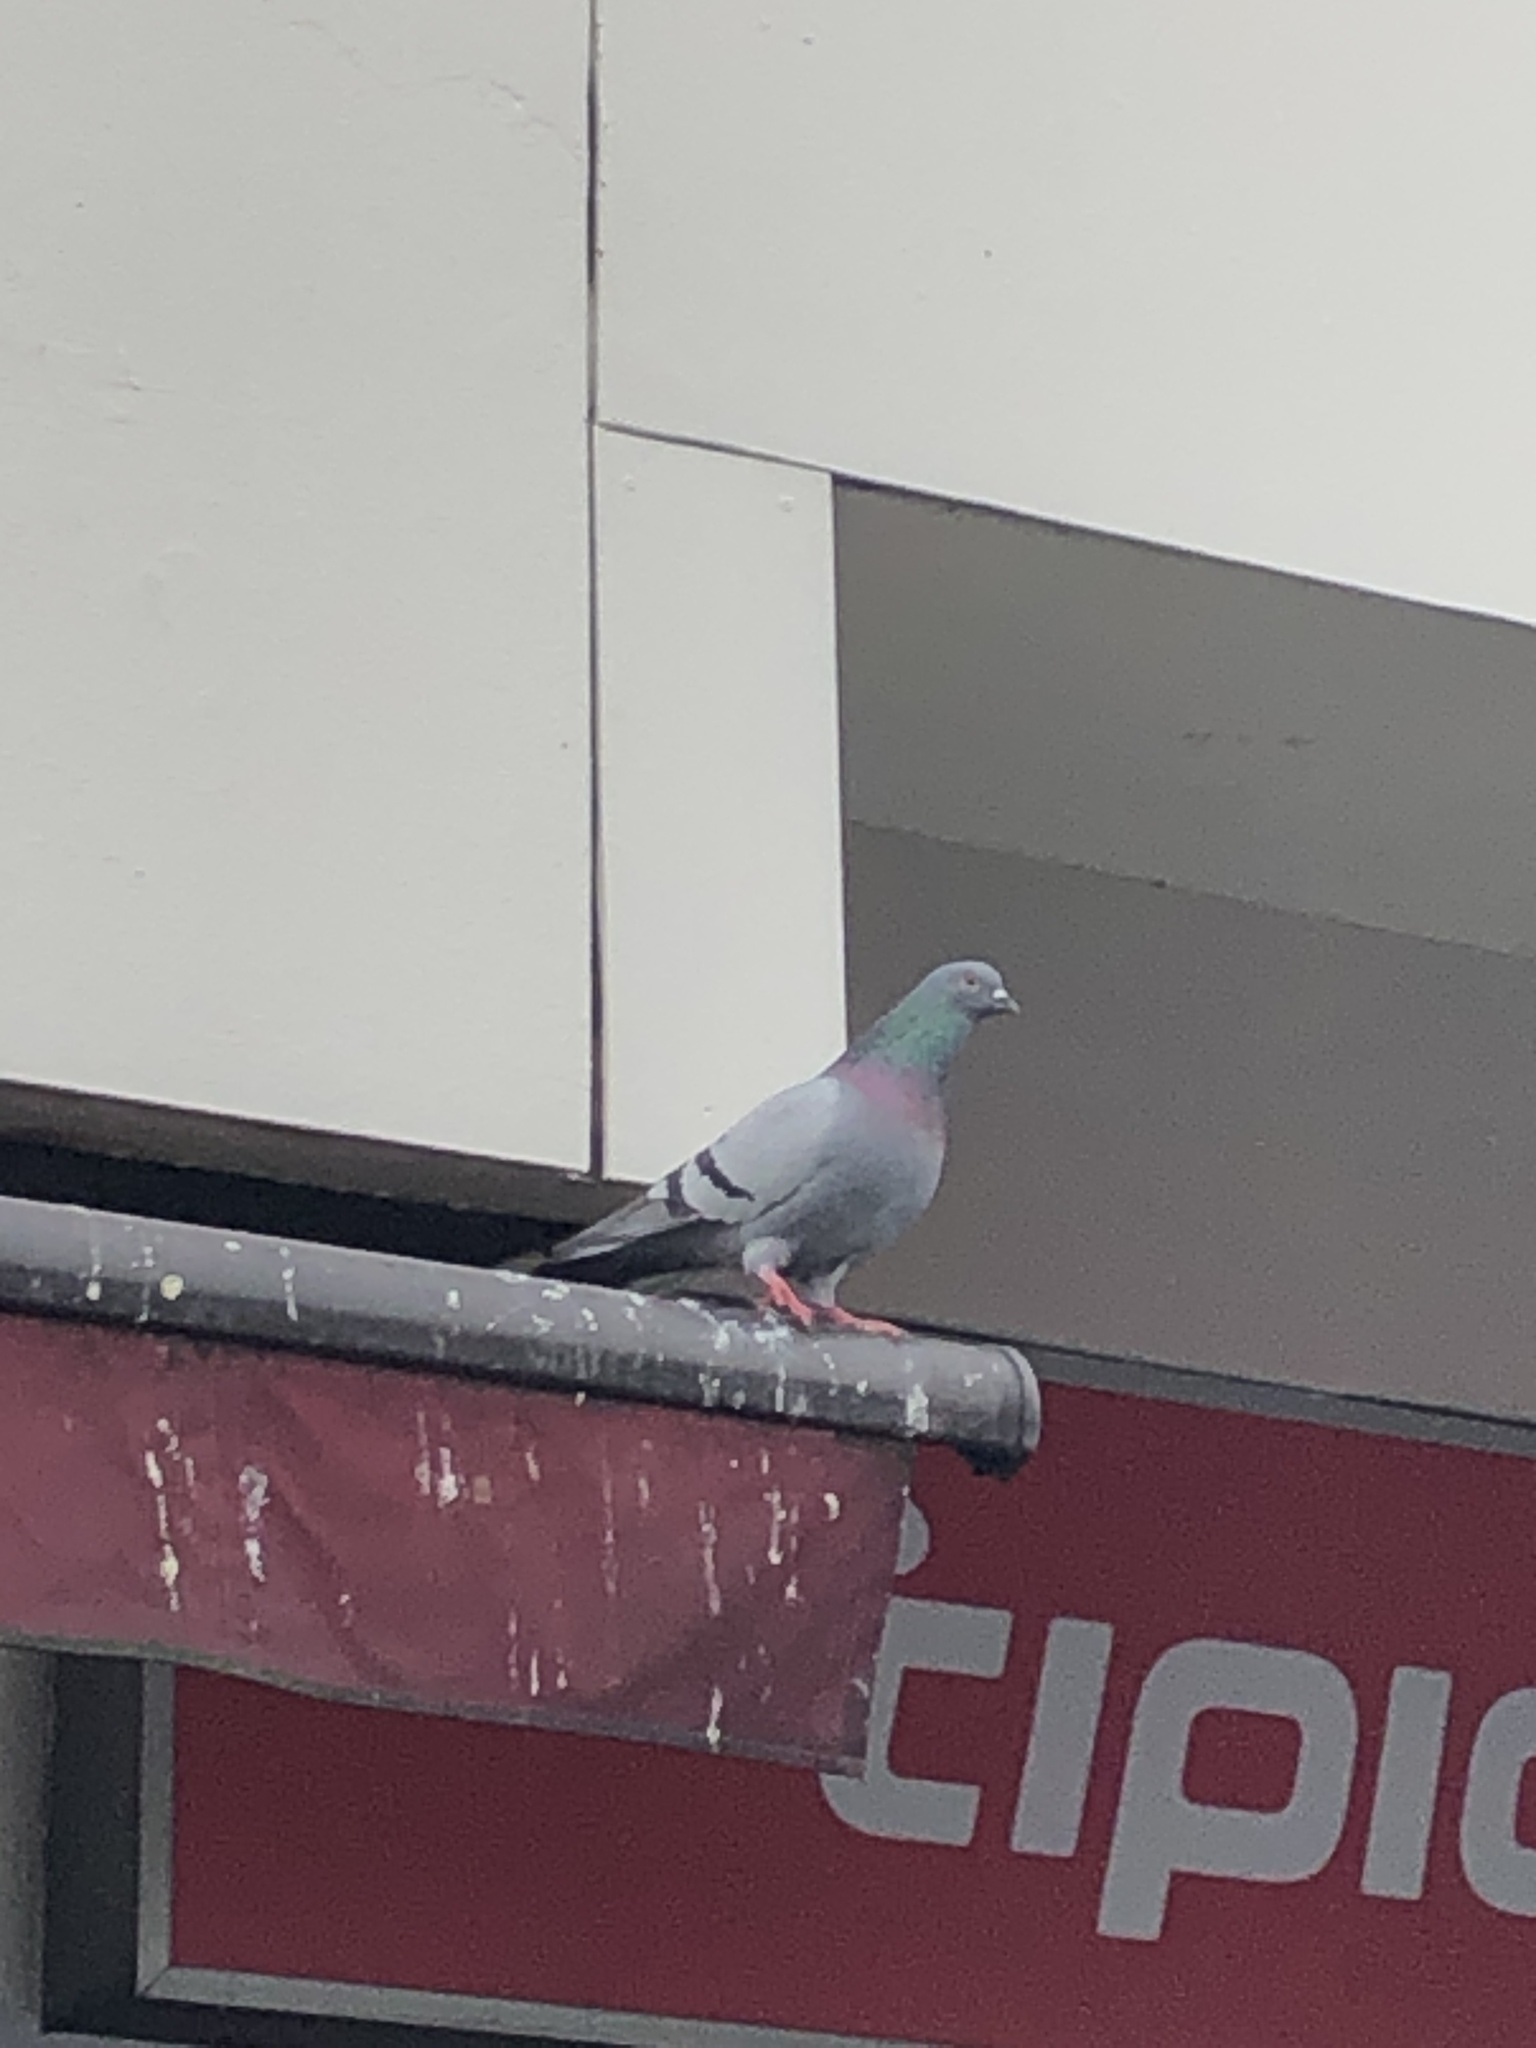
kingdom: Animalia
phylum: Chordata
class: Aves
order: Columbiformes
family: Columbidae
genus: Columba
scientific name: Columba livia
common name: Rock pigeon
